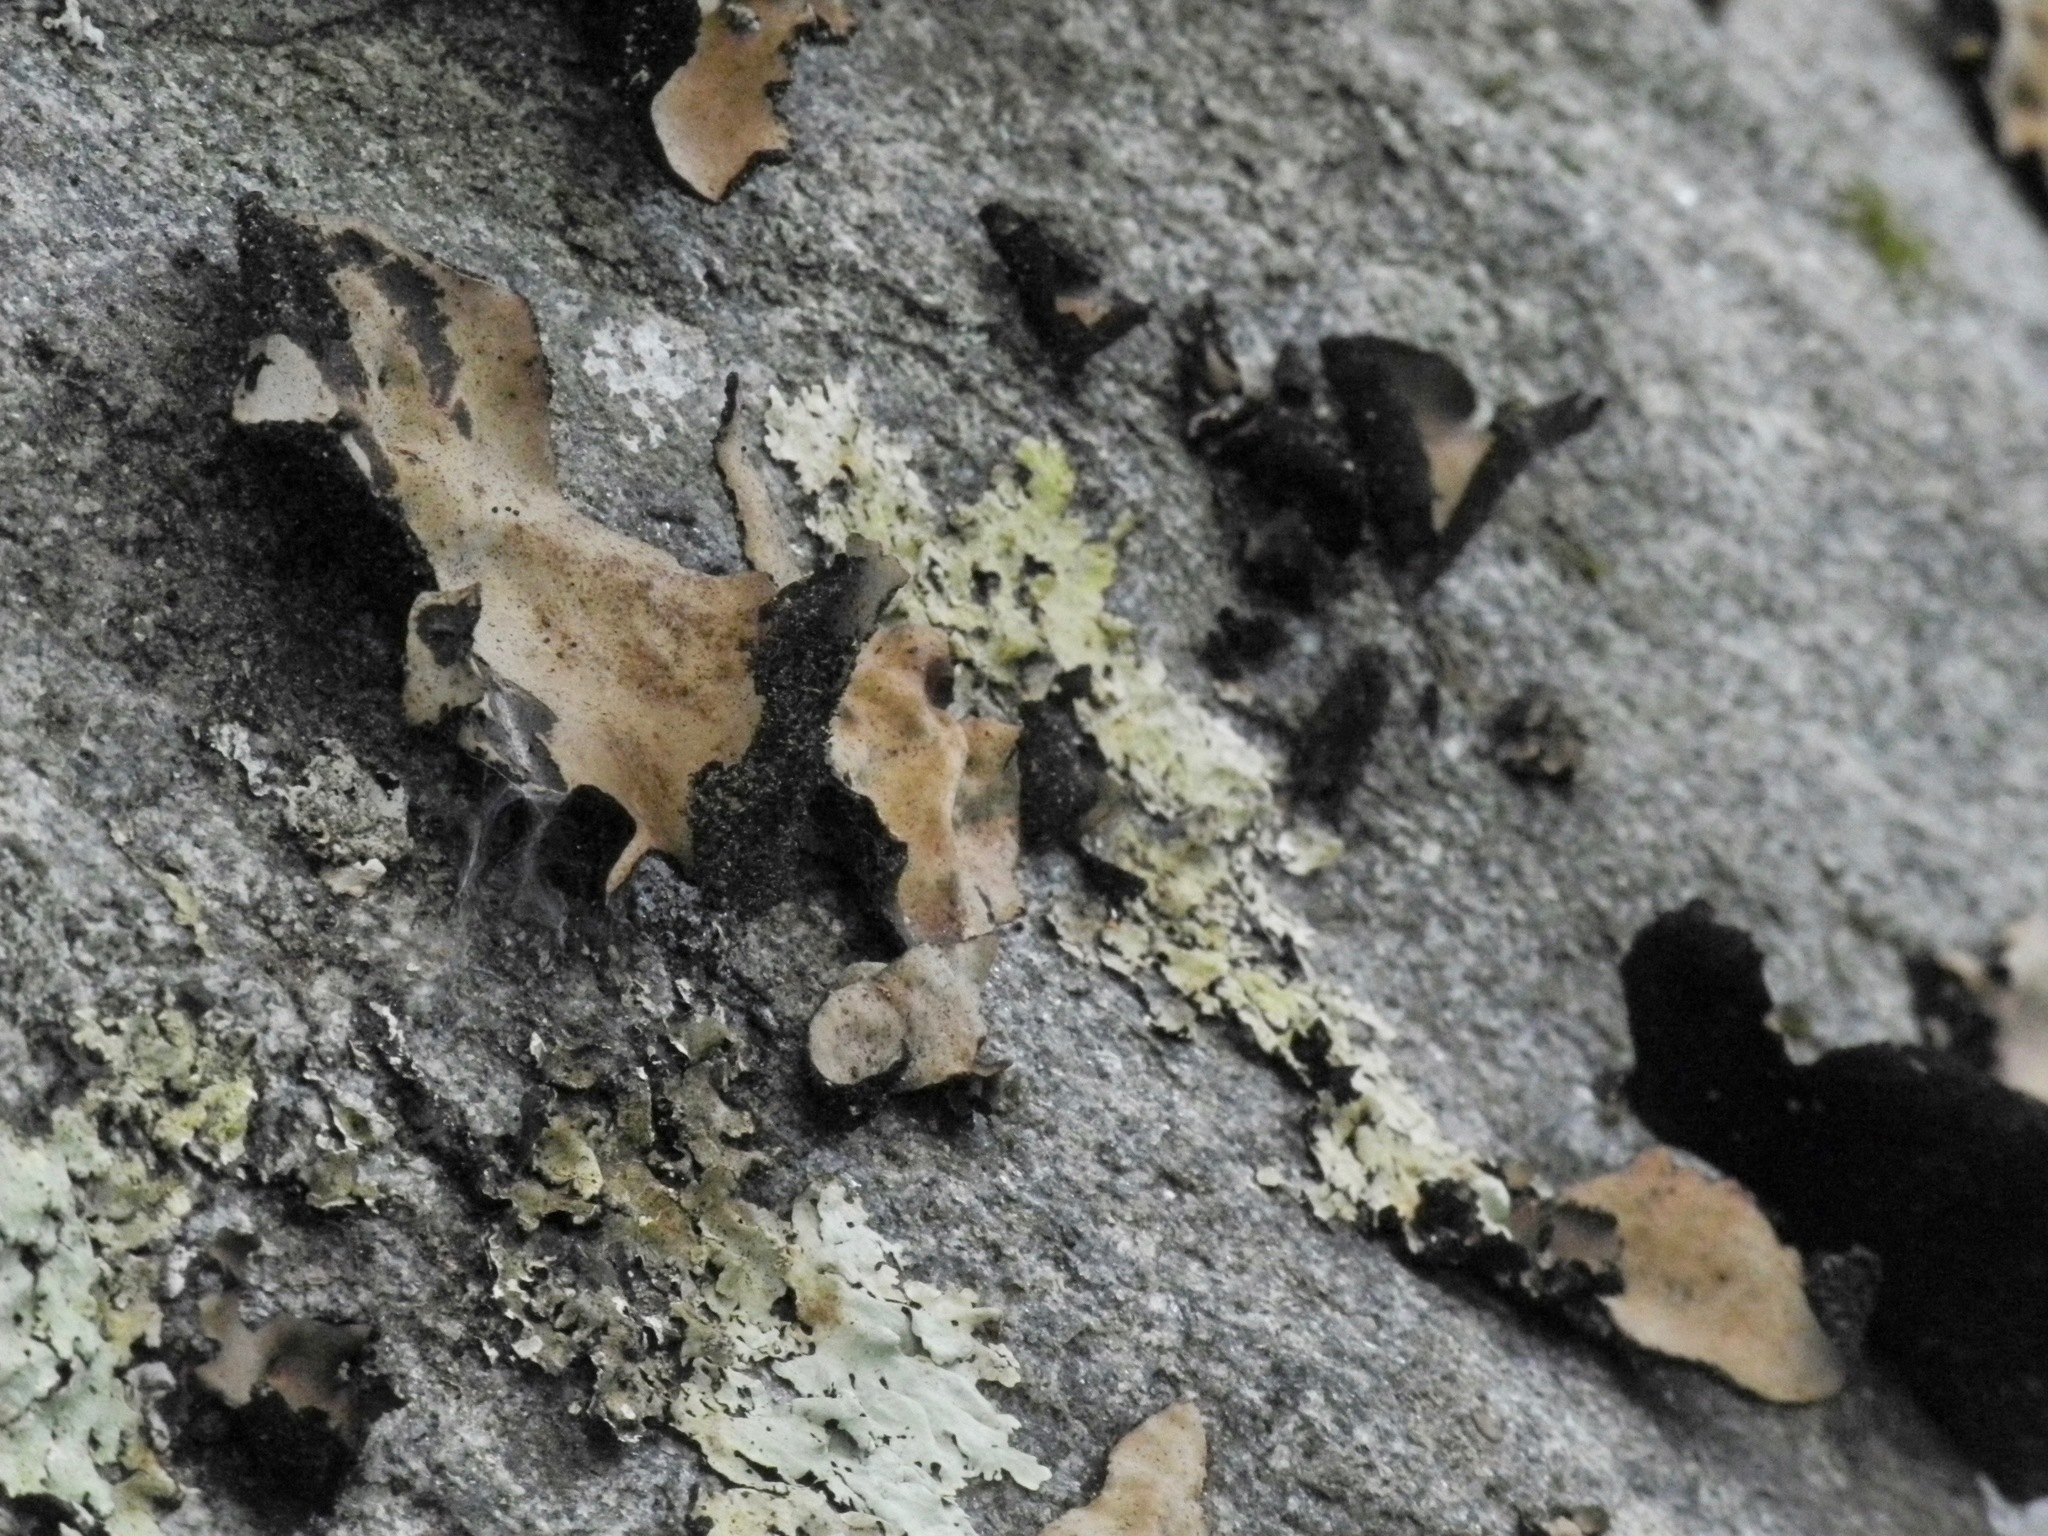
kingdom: Fungi
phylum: Ascomycota
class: Lecanoromycetes
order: Umbilicariales
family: Umbilicariaceae
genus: Umbilicaria
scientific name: Umbilicaria mammulata
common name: Smooth rock tripe
